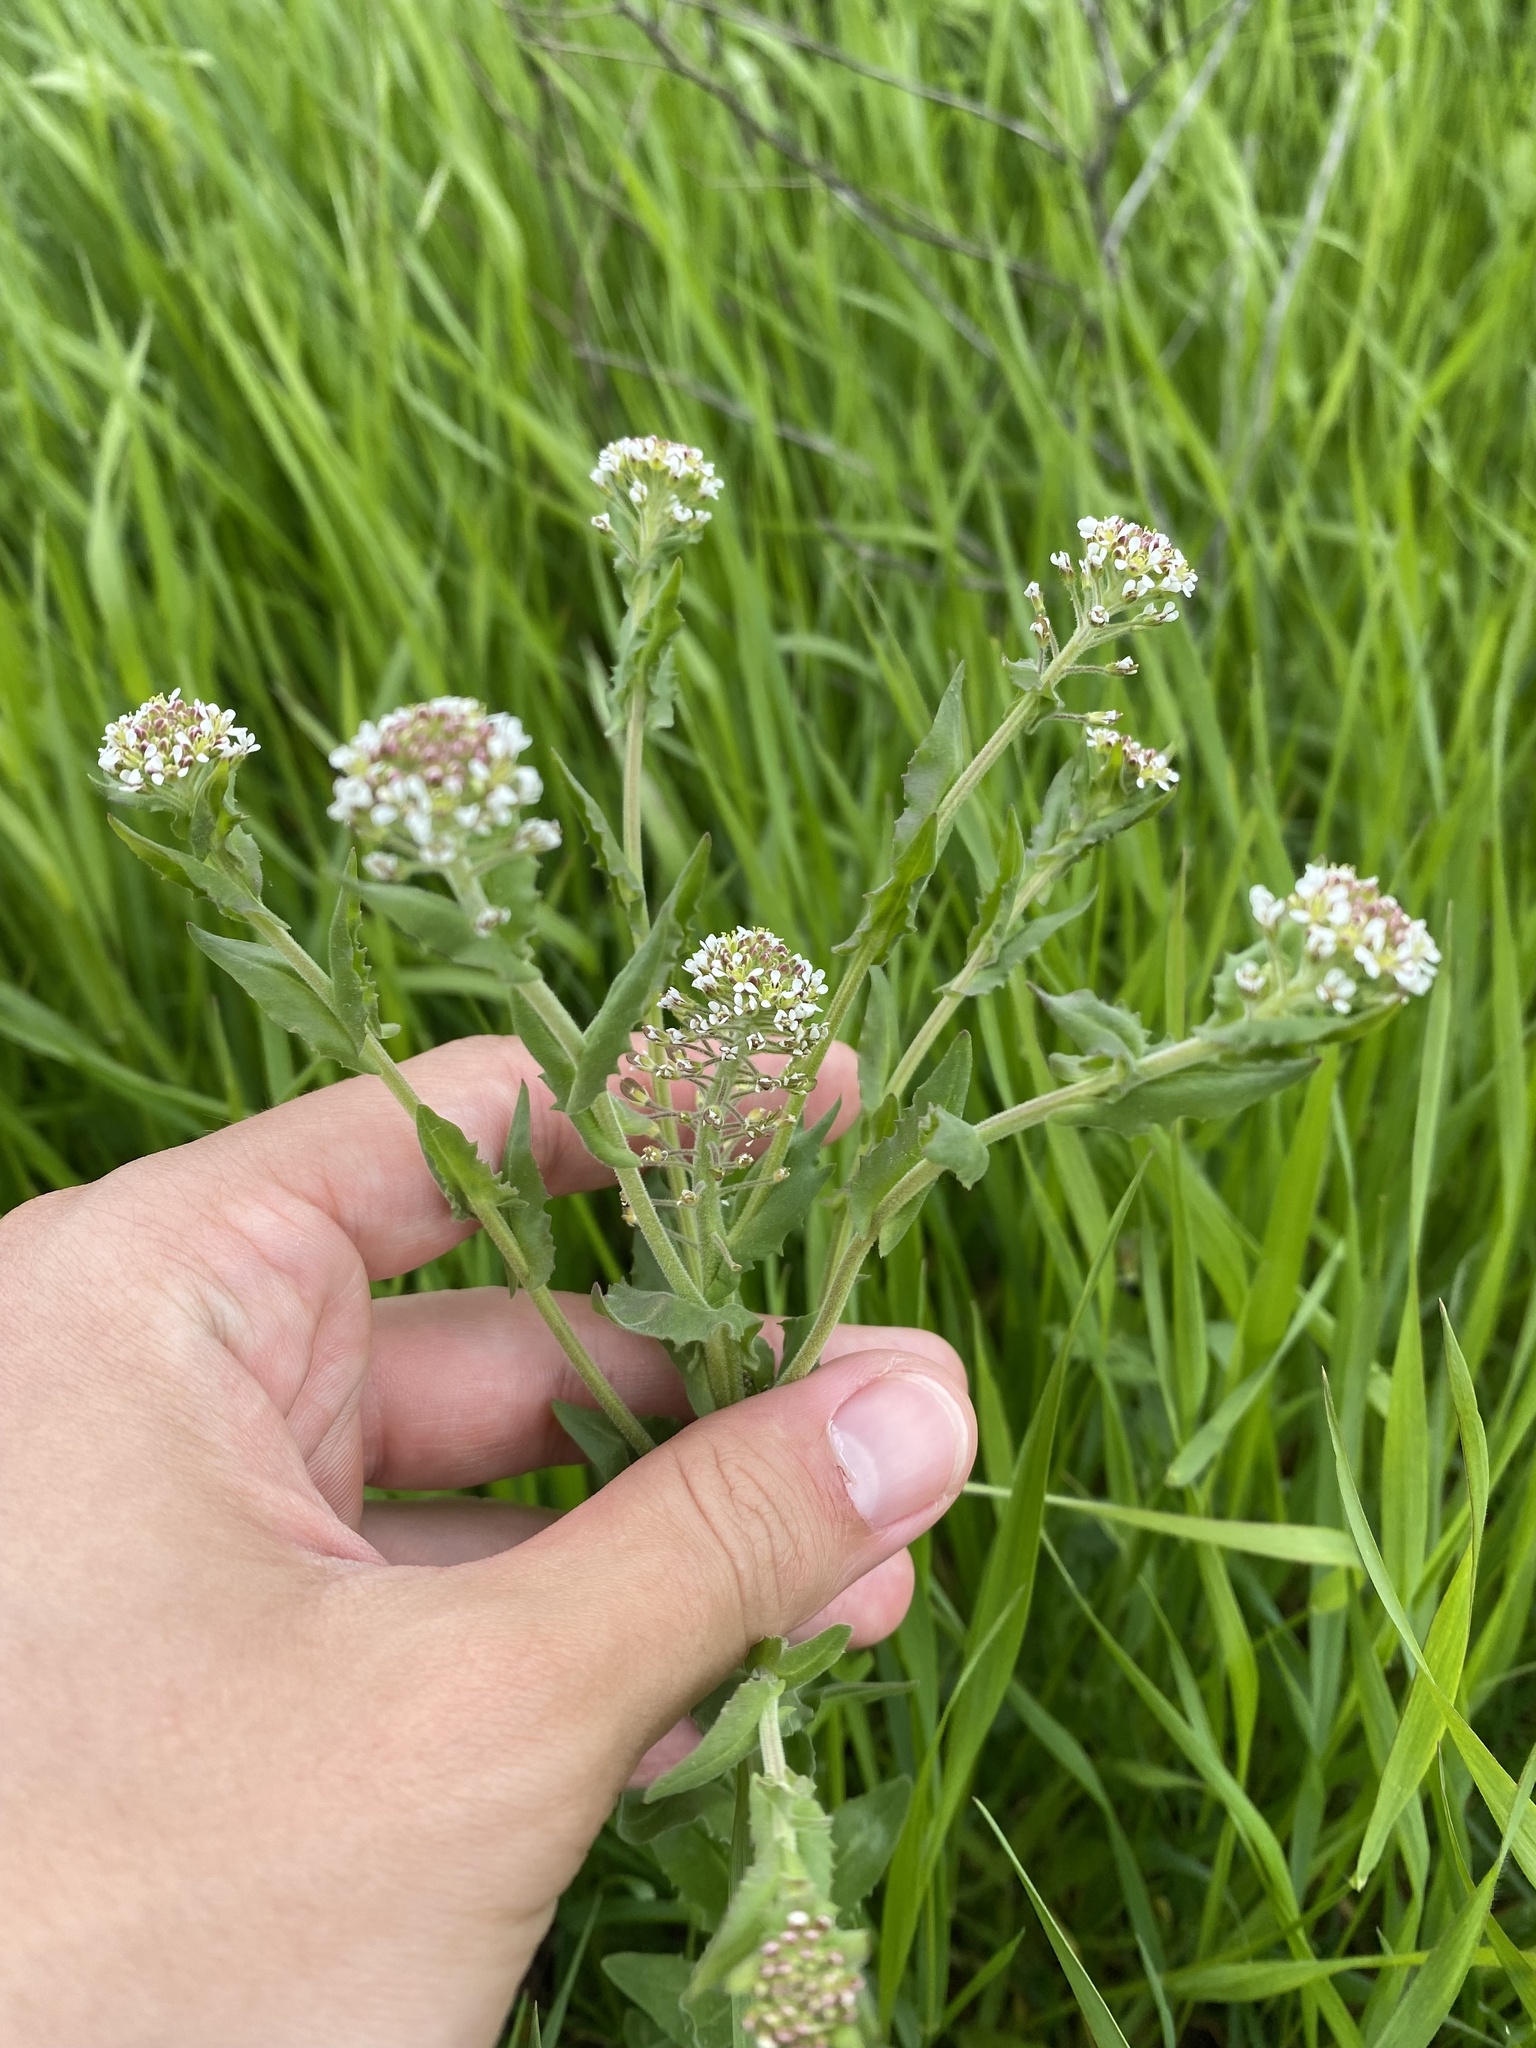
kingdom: Plantae
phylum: Tracheophyta
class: Magnoliopsida
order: Brassicales
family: Brassicaceae
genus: Lepidium
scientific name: Lepidium campestre
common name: Field pepperwort
